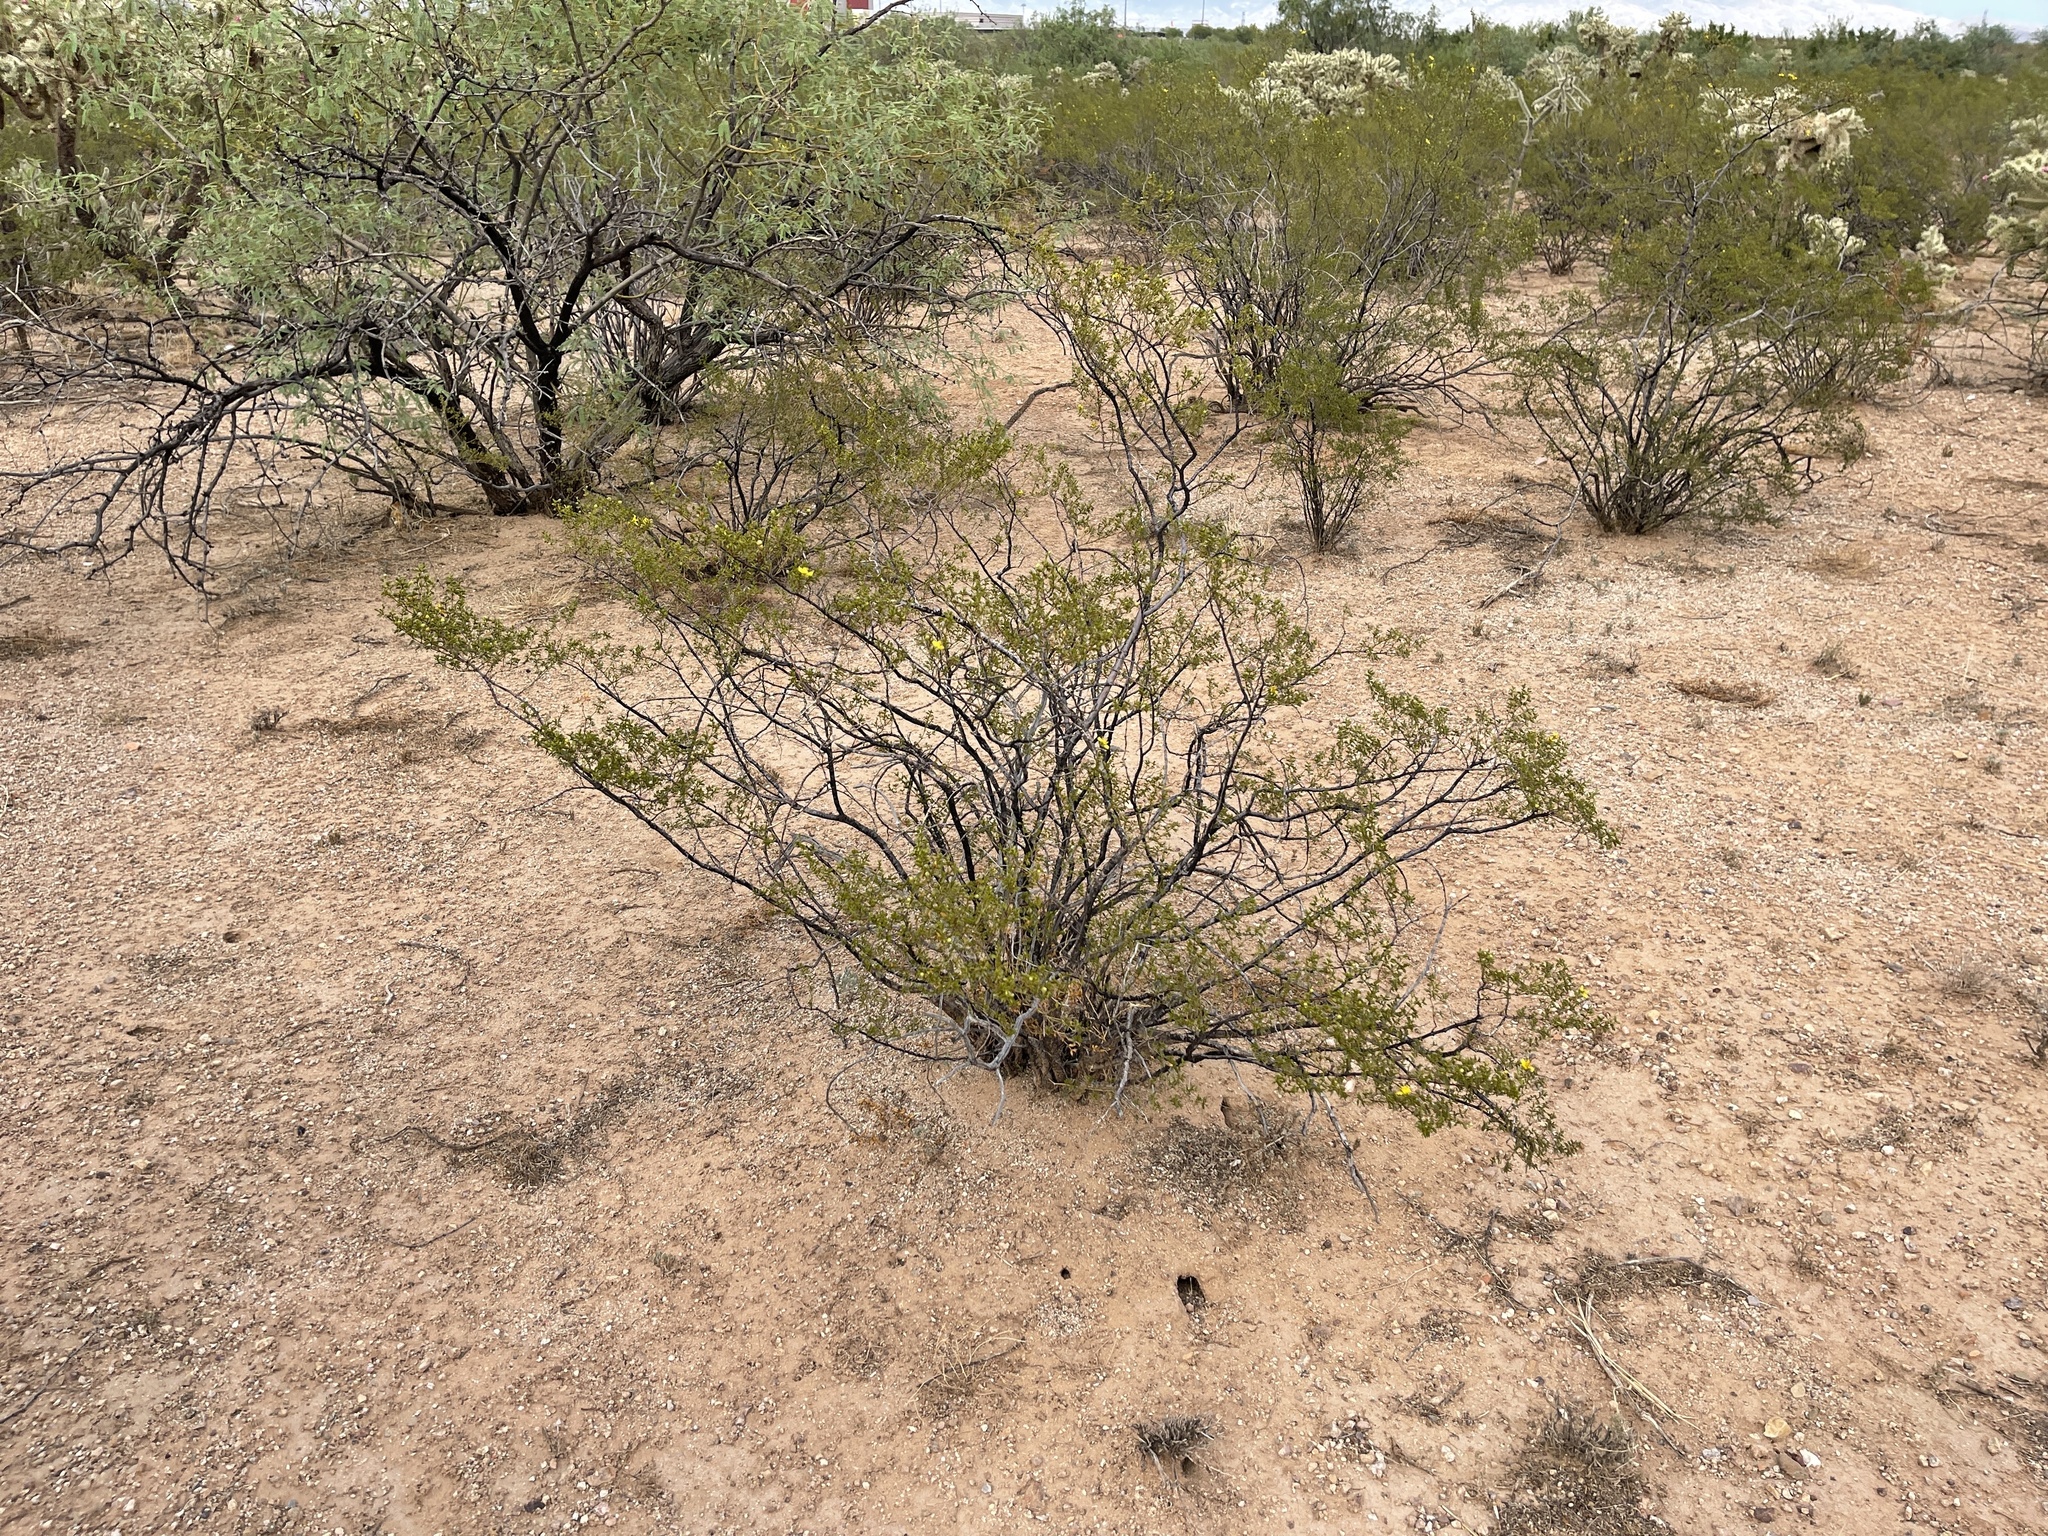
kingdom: Plantae
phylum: Tracheophyta
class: Magnoliopsida
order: Zygophyllales
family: Zygophyllaceae
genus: Larrea
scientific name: Larrea tridentata
